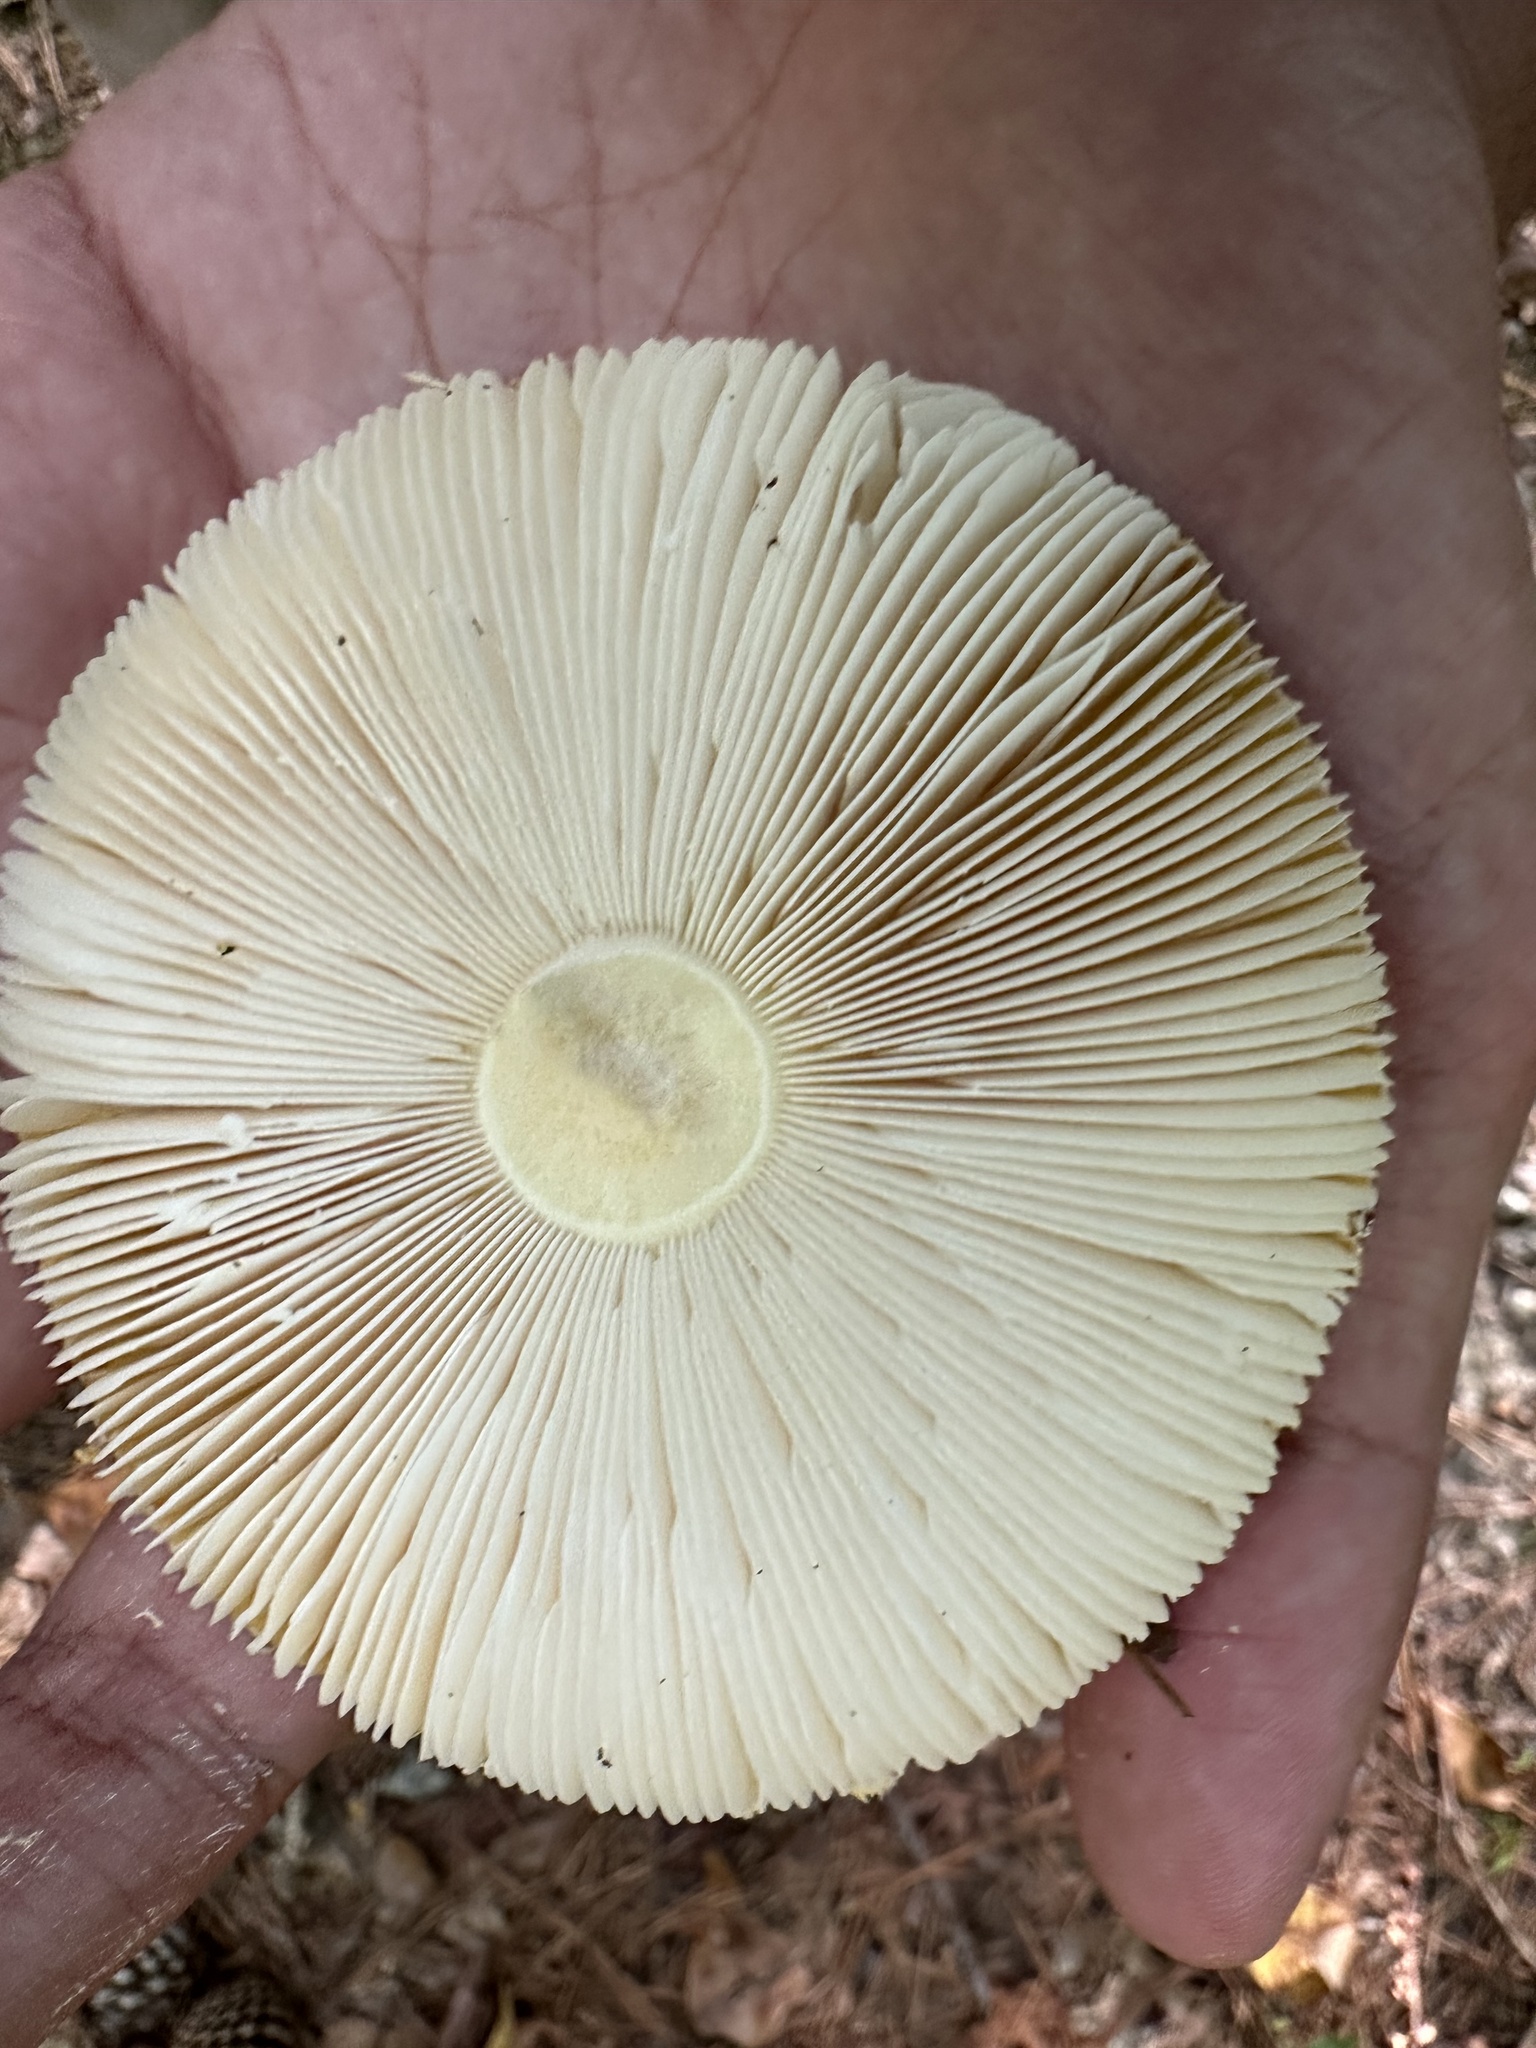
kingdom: Fungi
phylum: Basidiomycota
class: Agaricomycetes
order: Agaricales
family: Amanitaceae
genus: Amanita
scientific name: Amanita persicina
